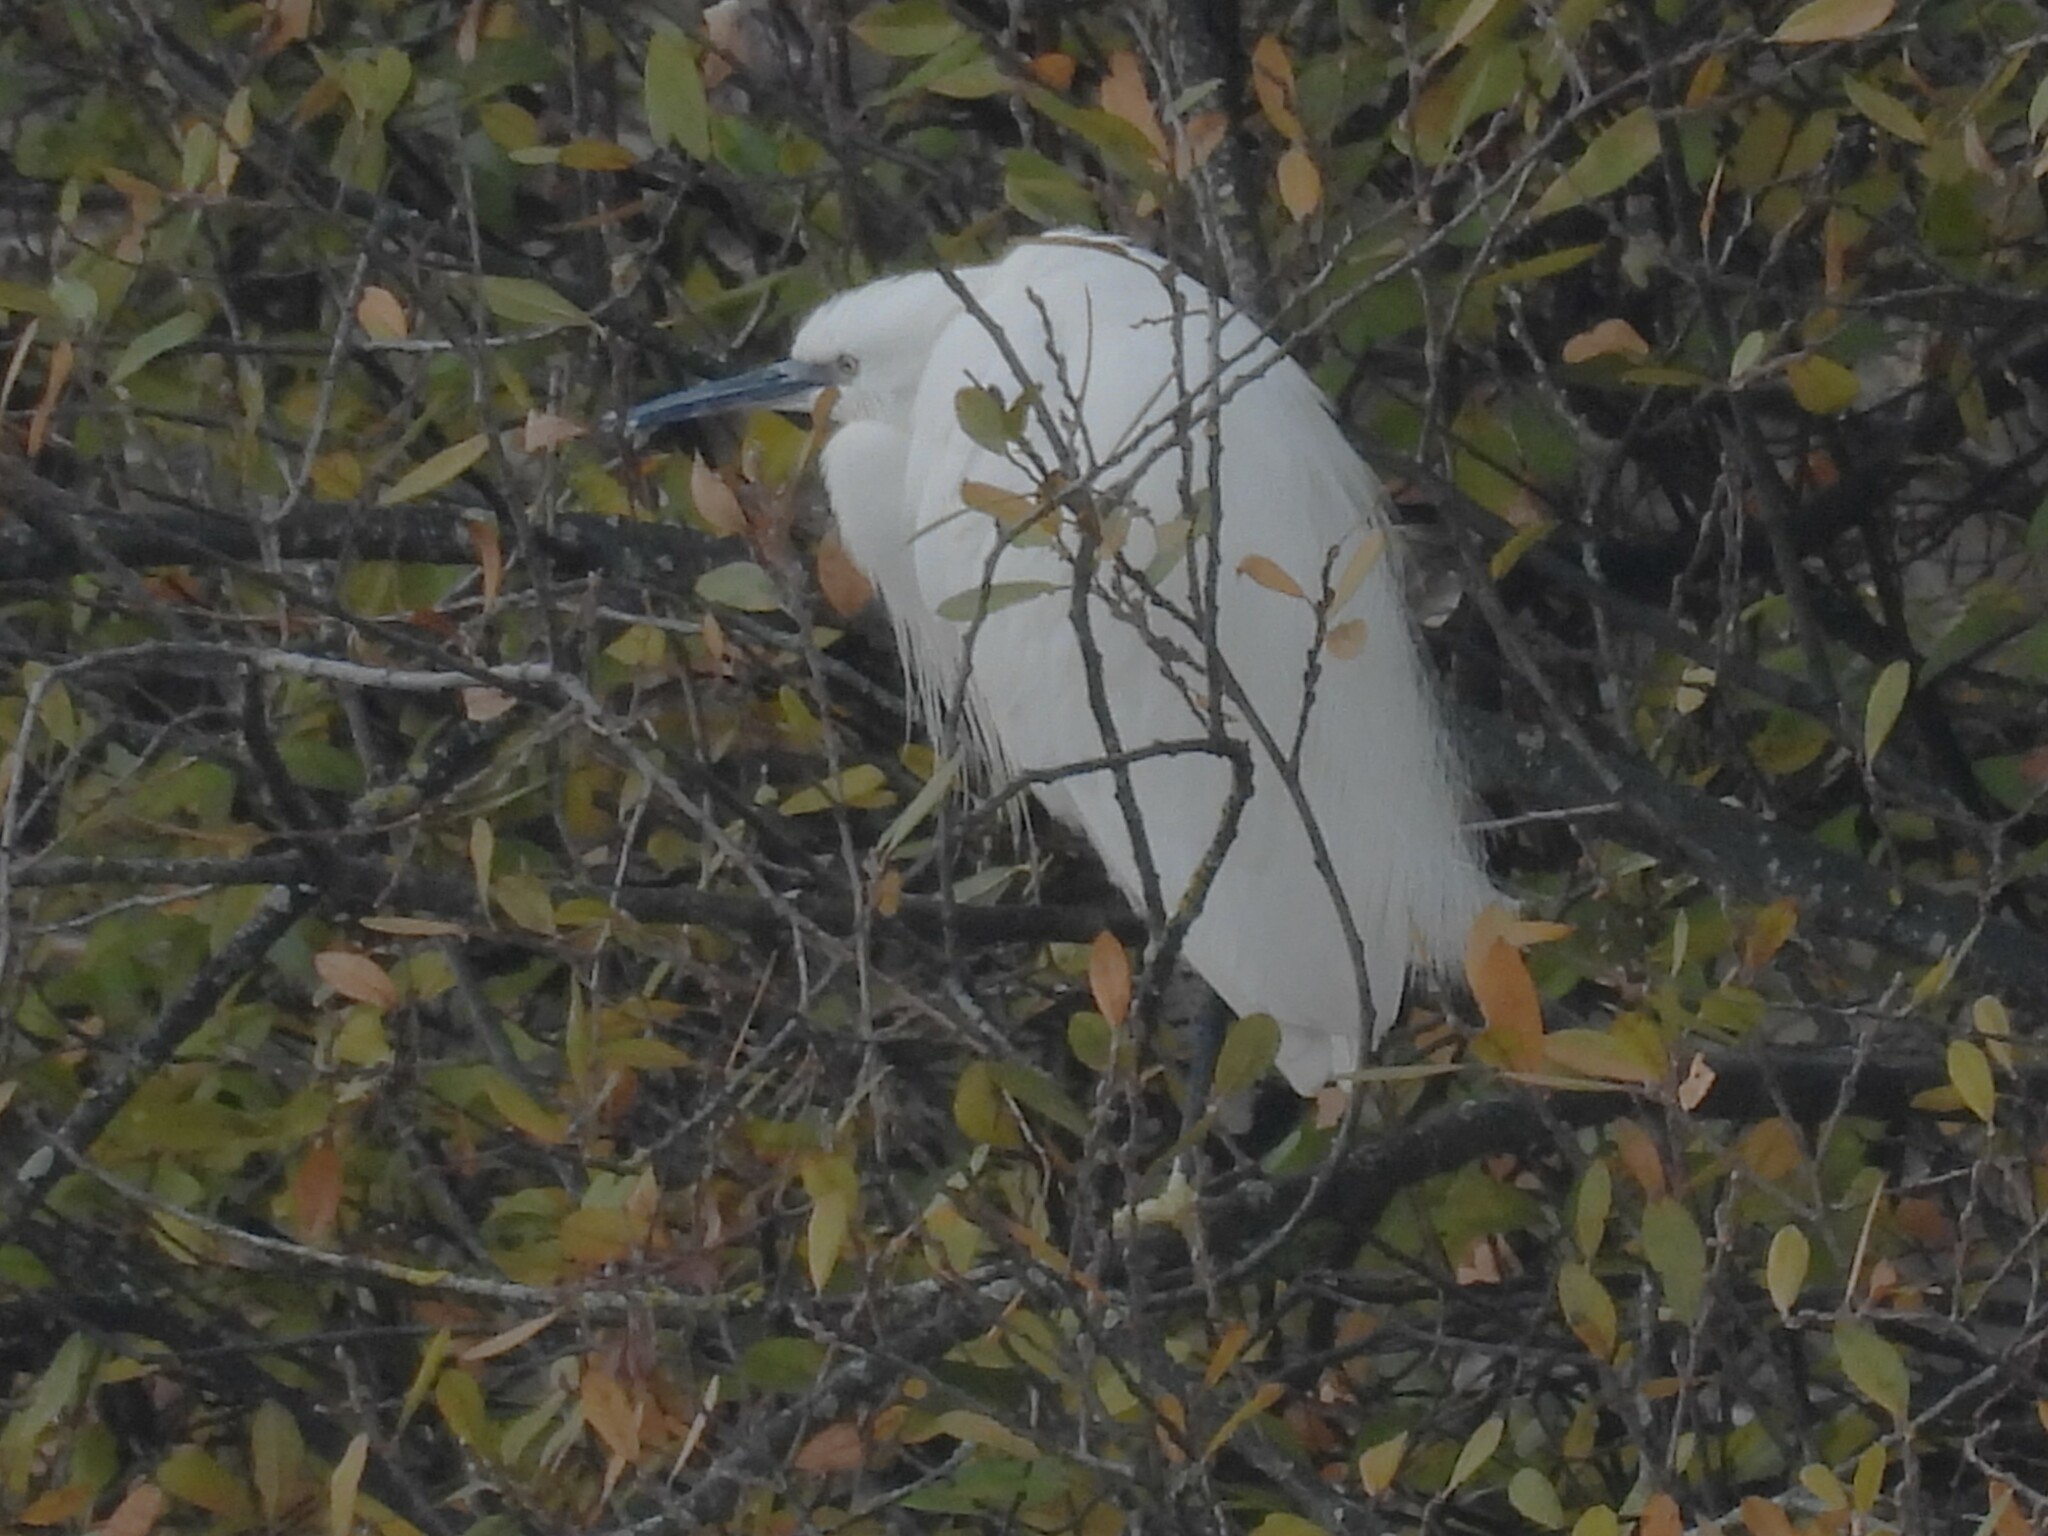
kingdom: Animalia
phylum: Chordata
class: Aves
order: Pelecaniformes
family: Ardeidae
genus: Egretta
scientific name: Egretta garzetta
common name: Little egret
